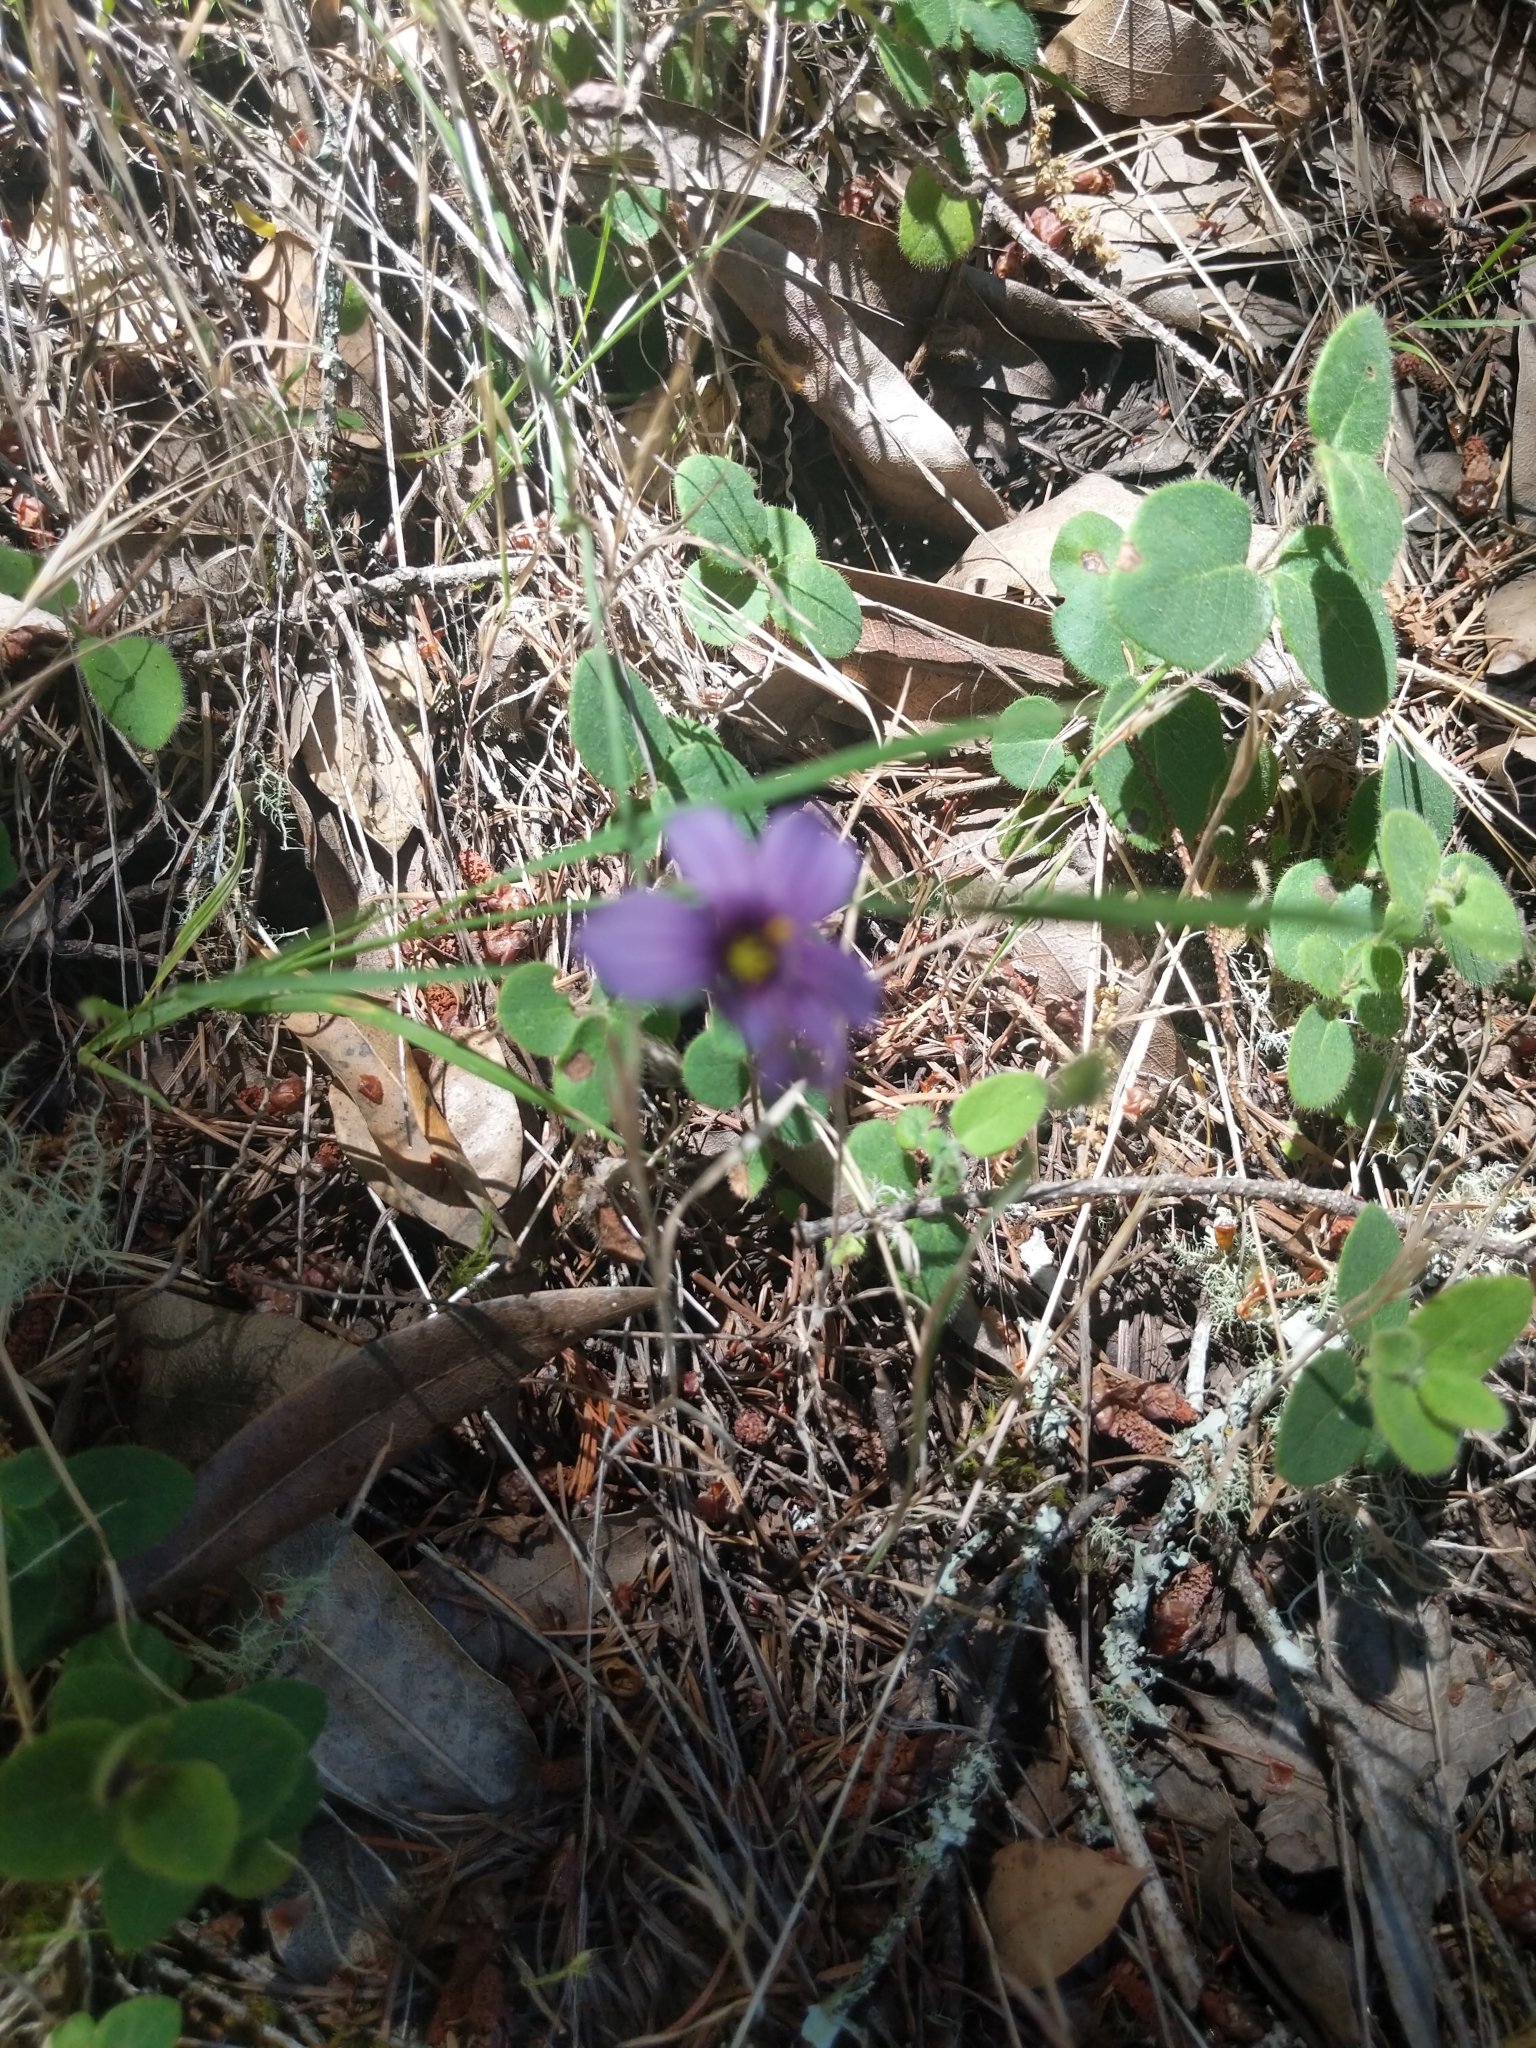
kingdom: Plantae
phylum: Tracheophyta
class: Liliopsida
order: Asparagales
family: Iridaceae
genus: Sisyrinchium
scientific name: Sisyrinchium bellum
